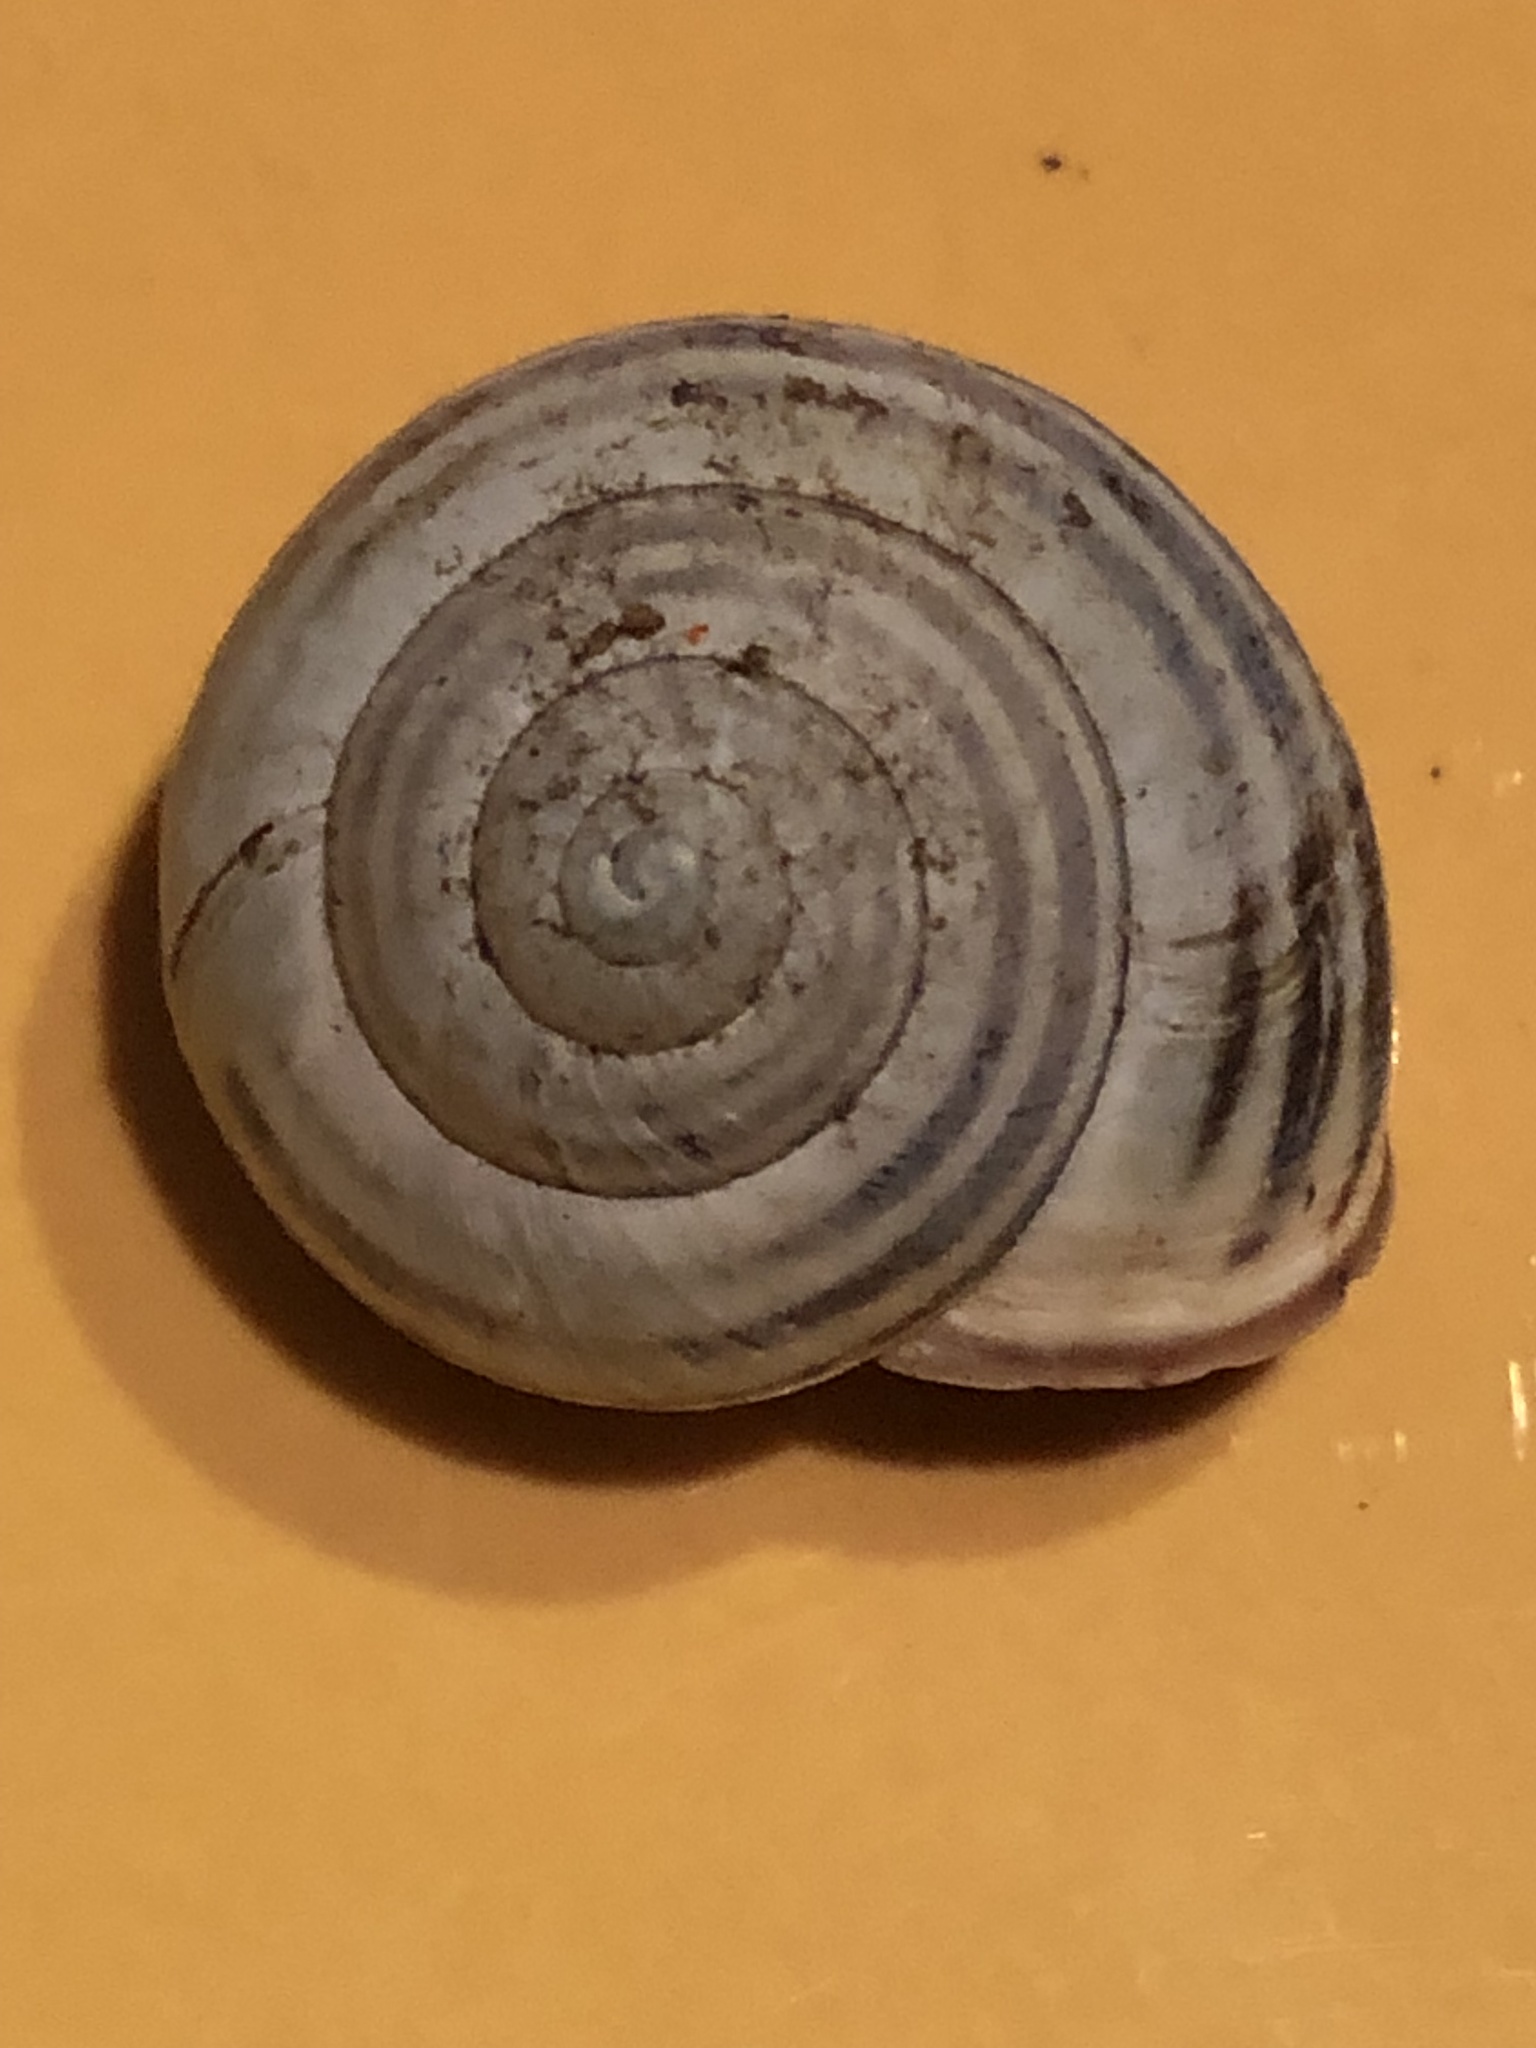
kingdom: Animalia
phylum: Mollusca
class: Gastropoda
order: Stylommatophora
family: Helicidae
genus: Cepaea
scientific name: Cepaea nemoralis
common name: Grovesnail
